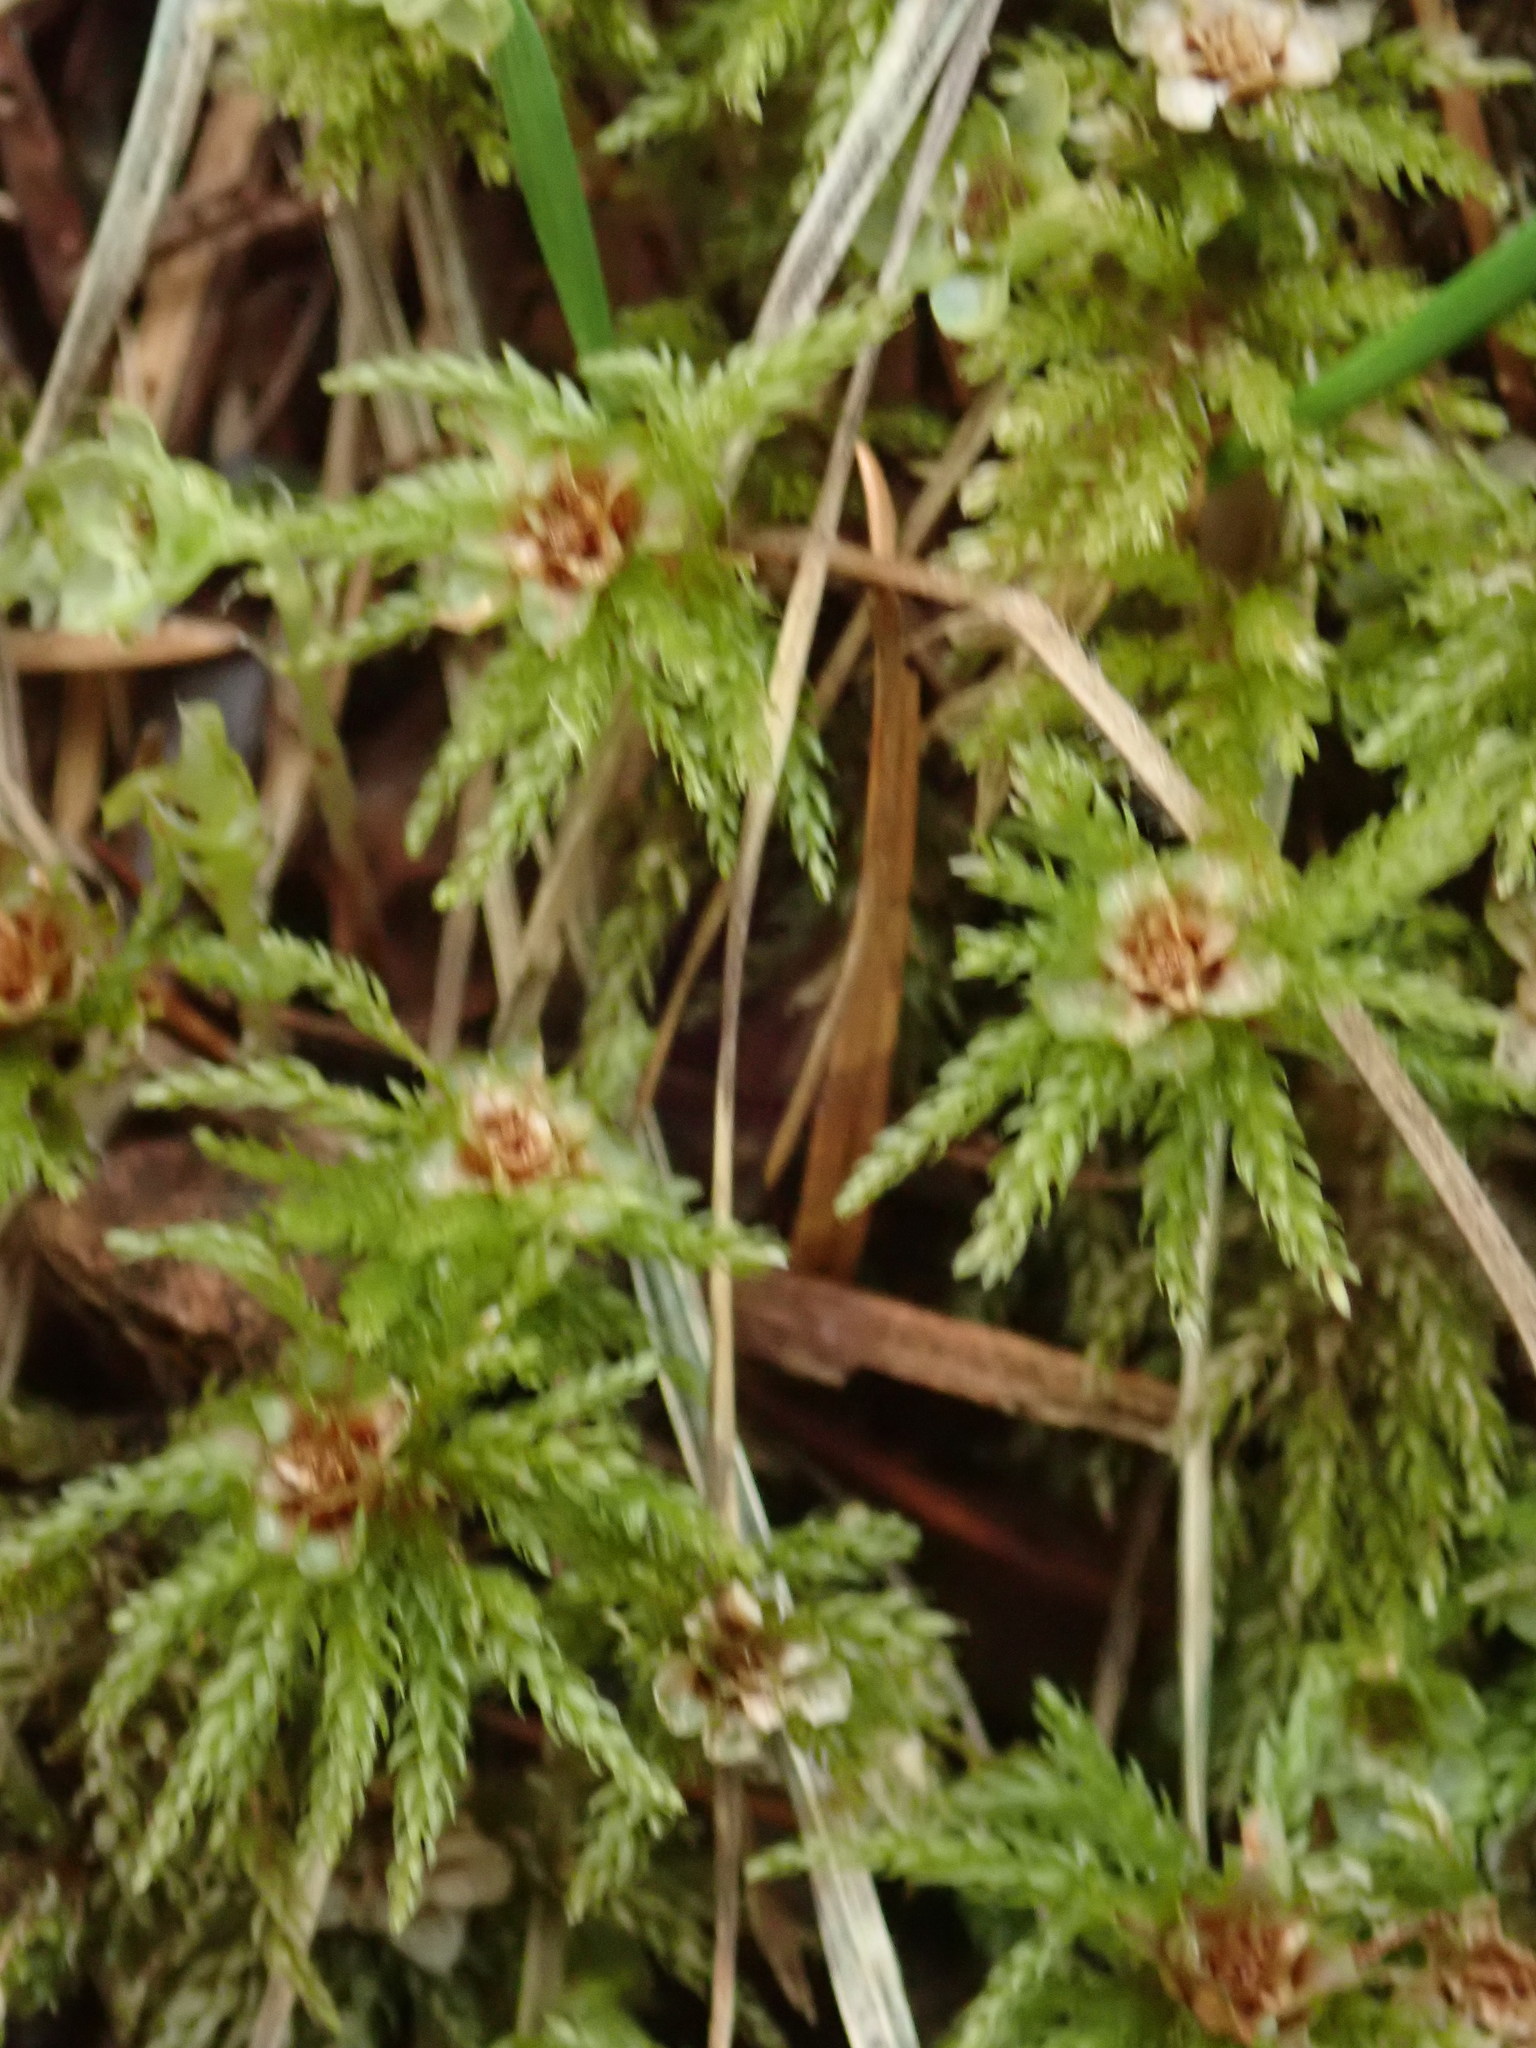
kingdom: Plantae
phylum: Bryophyta
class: Bryopsida
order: Bryales
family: Mniaceae
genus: Leucolepis
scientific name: Leucolepis acanthoneura
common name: Leucolepis umbrella moss
